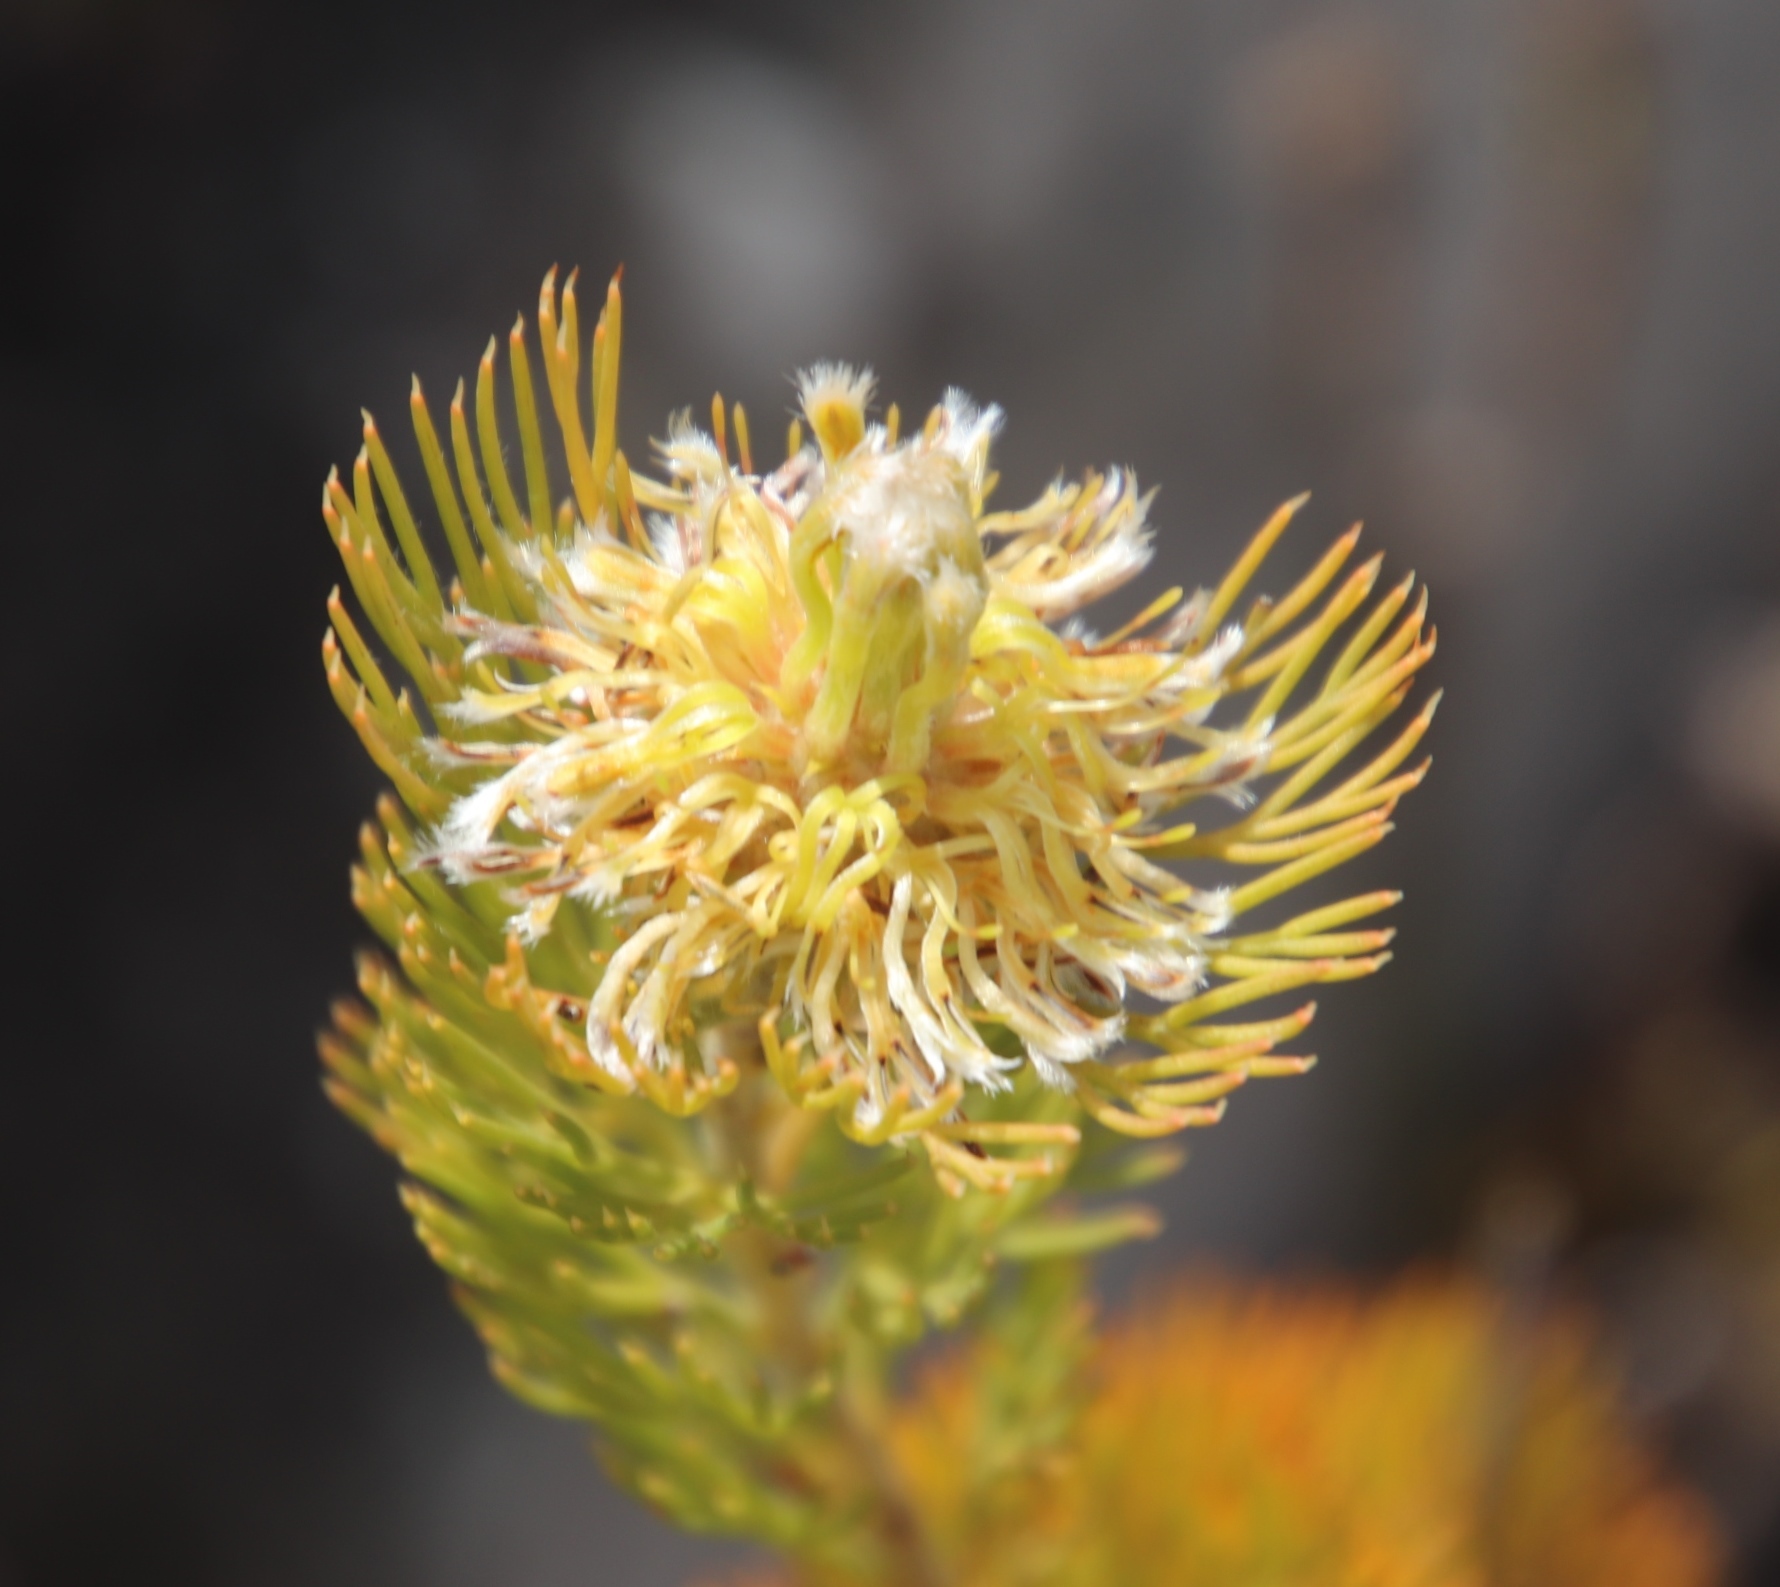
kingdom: Plantae
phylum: Tracheophyta
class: Magnoliopsida
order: Proteales
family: Proteaceae
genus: Serruria
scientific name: Serruria villosa
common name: Golden spiderhead
